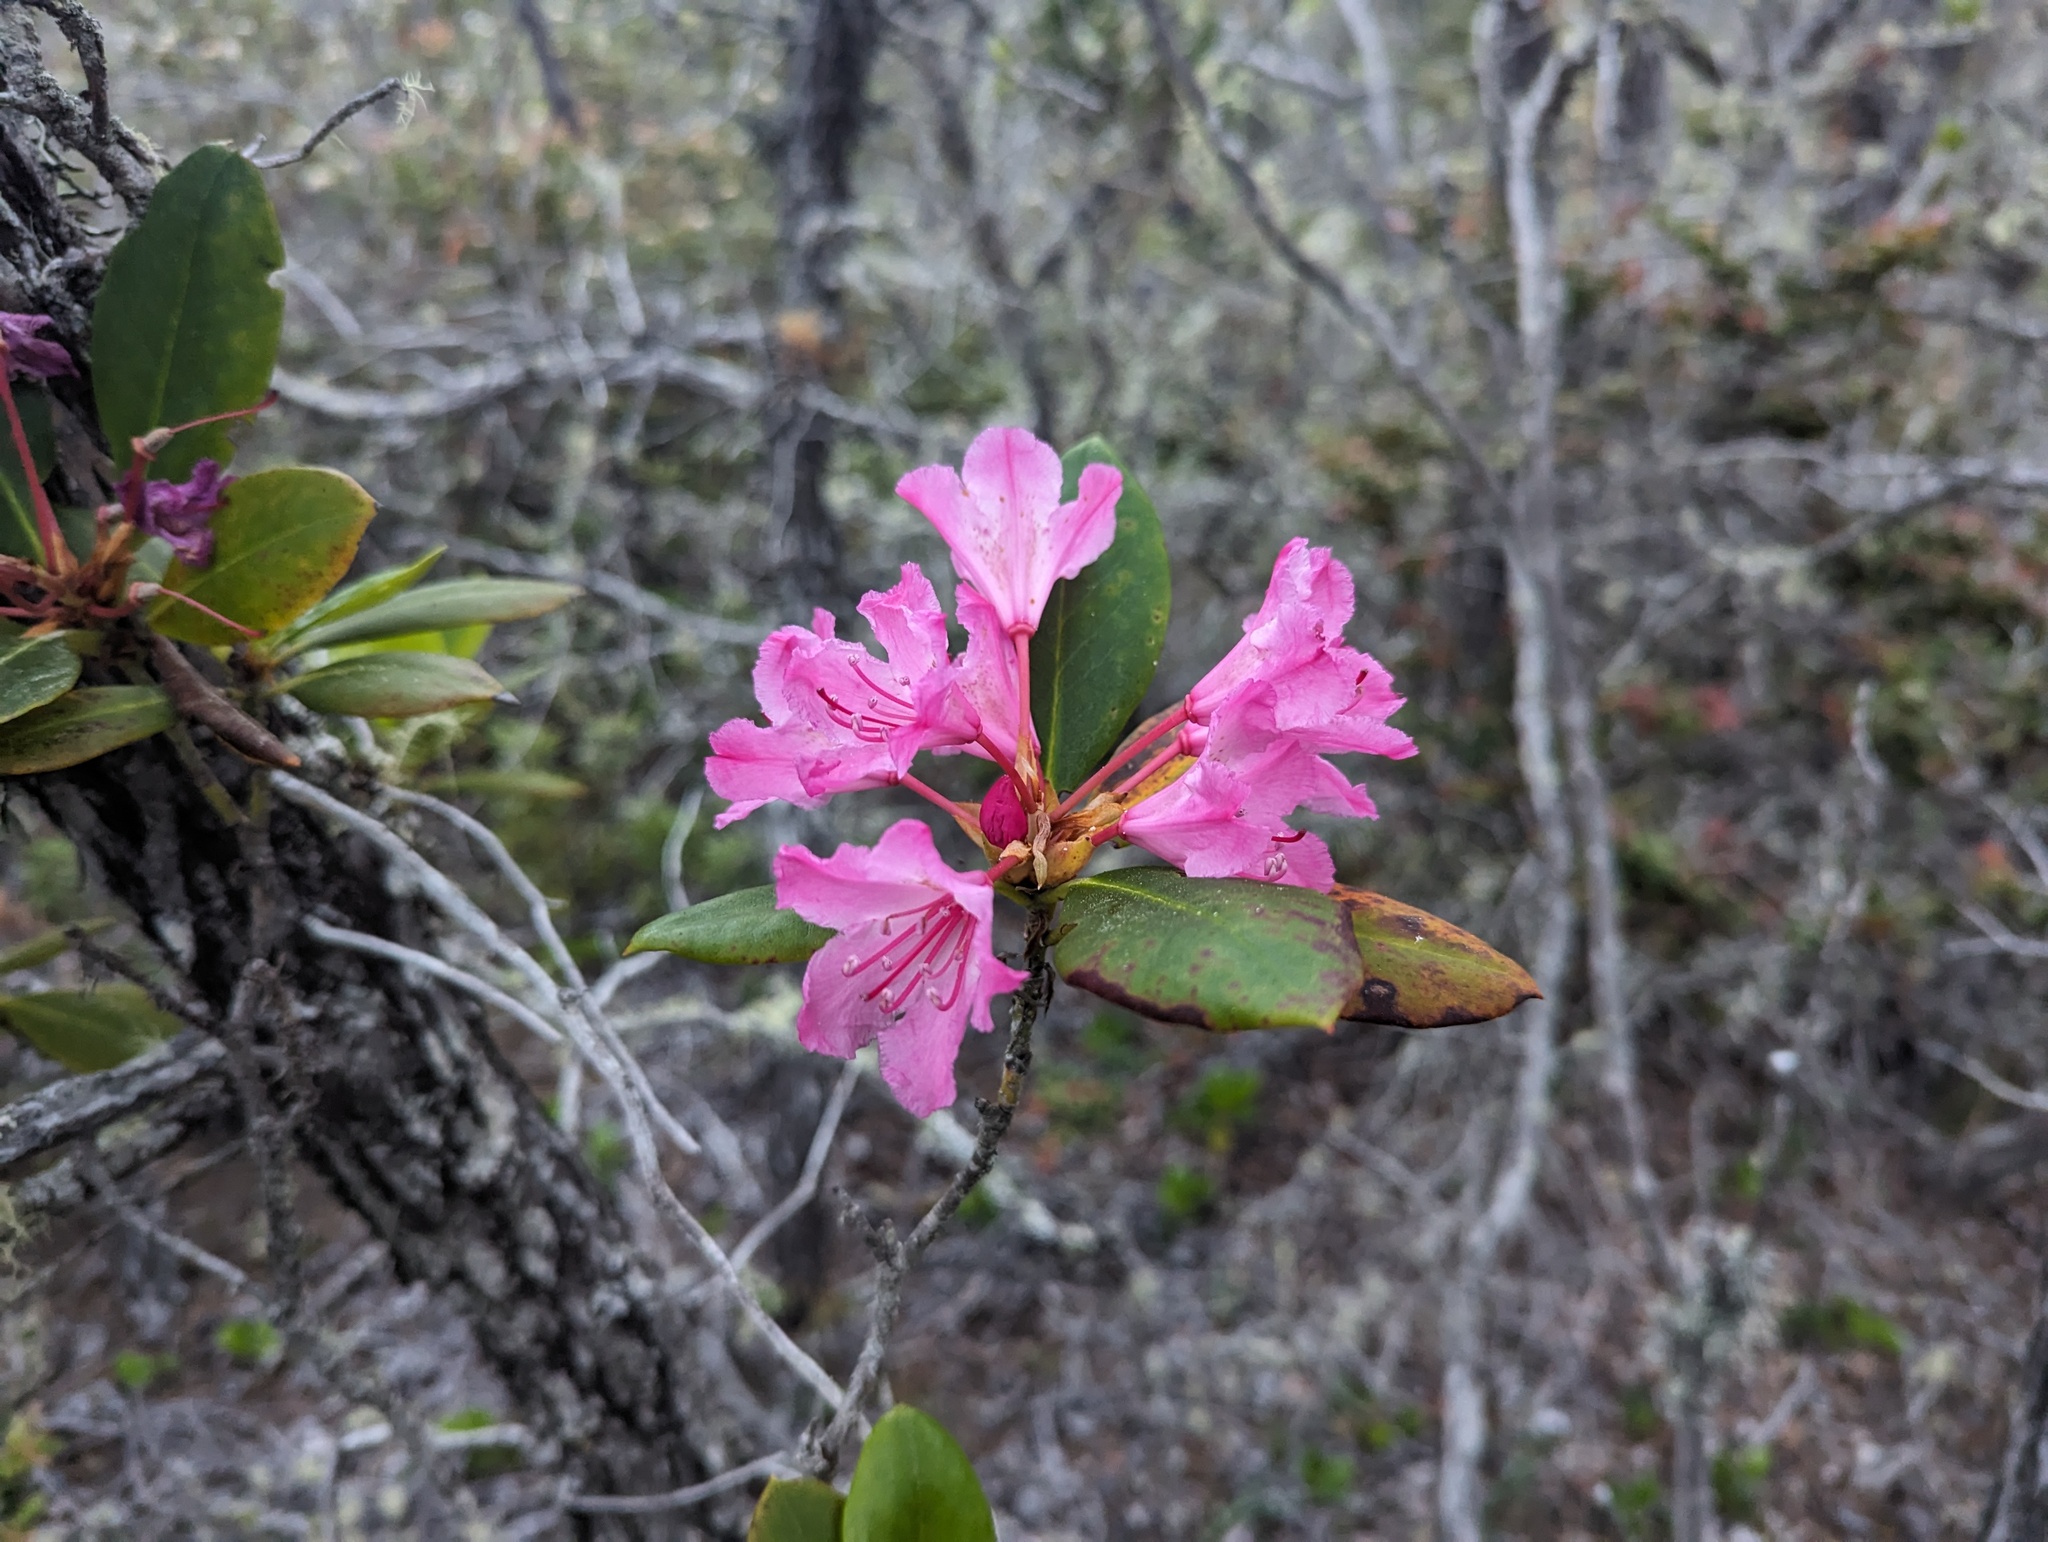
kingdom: Plantae
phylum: Tracheophyta
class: Magnoliopsida
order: Ericales
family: Ericaceae
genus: Rhododendron
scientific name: Rhododendron macrophyllum
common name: California rose bay
